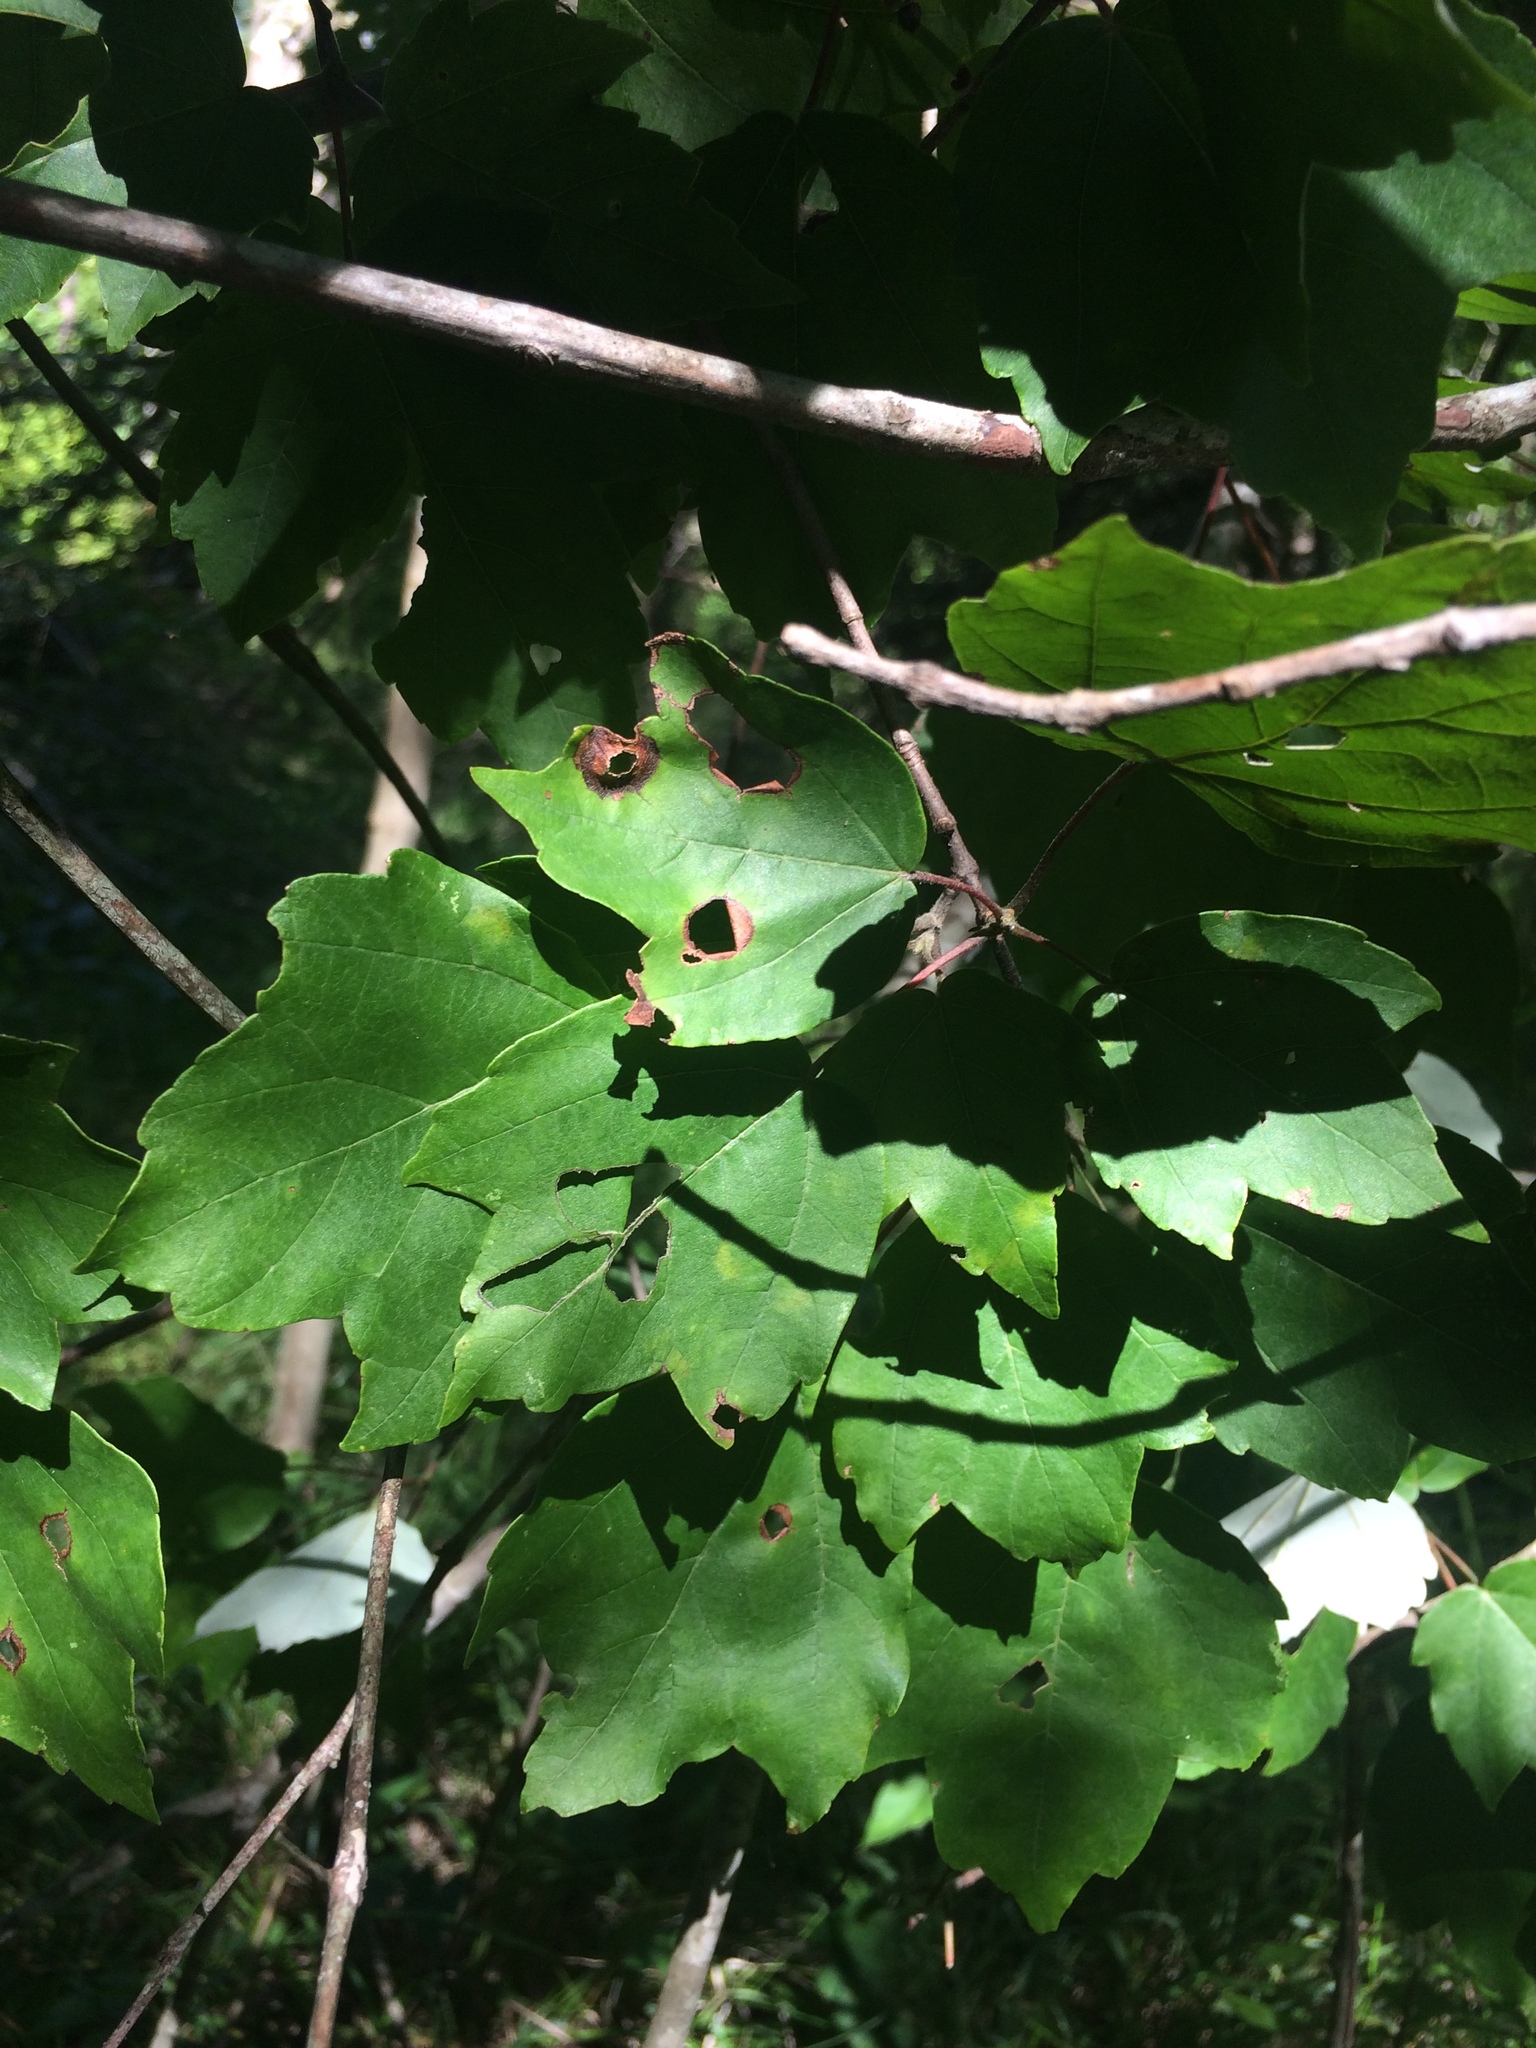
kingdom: Plantae
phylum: Tracheophyta
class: Magnoliopsida
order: Sapindales
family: Sapindaceae
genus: Acer
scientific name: Acer rubrum
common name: Red maple
